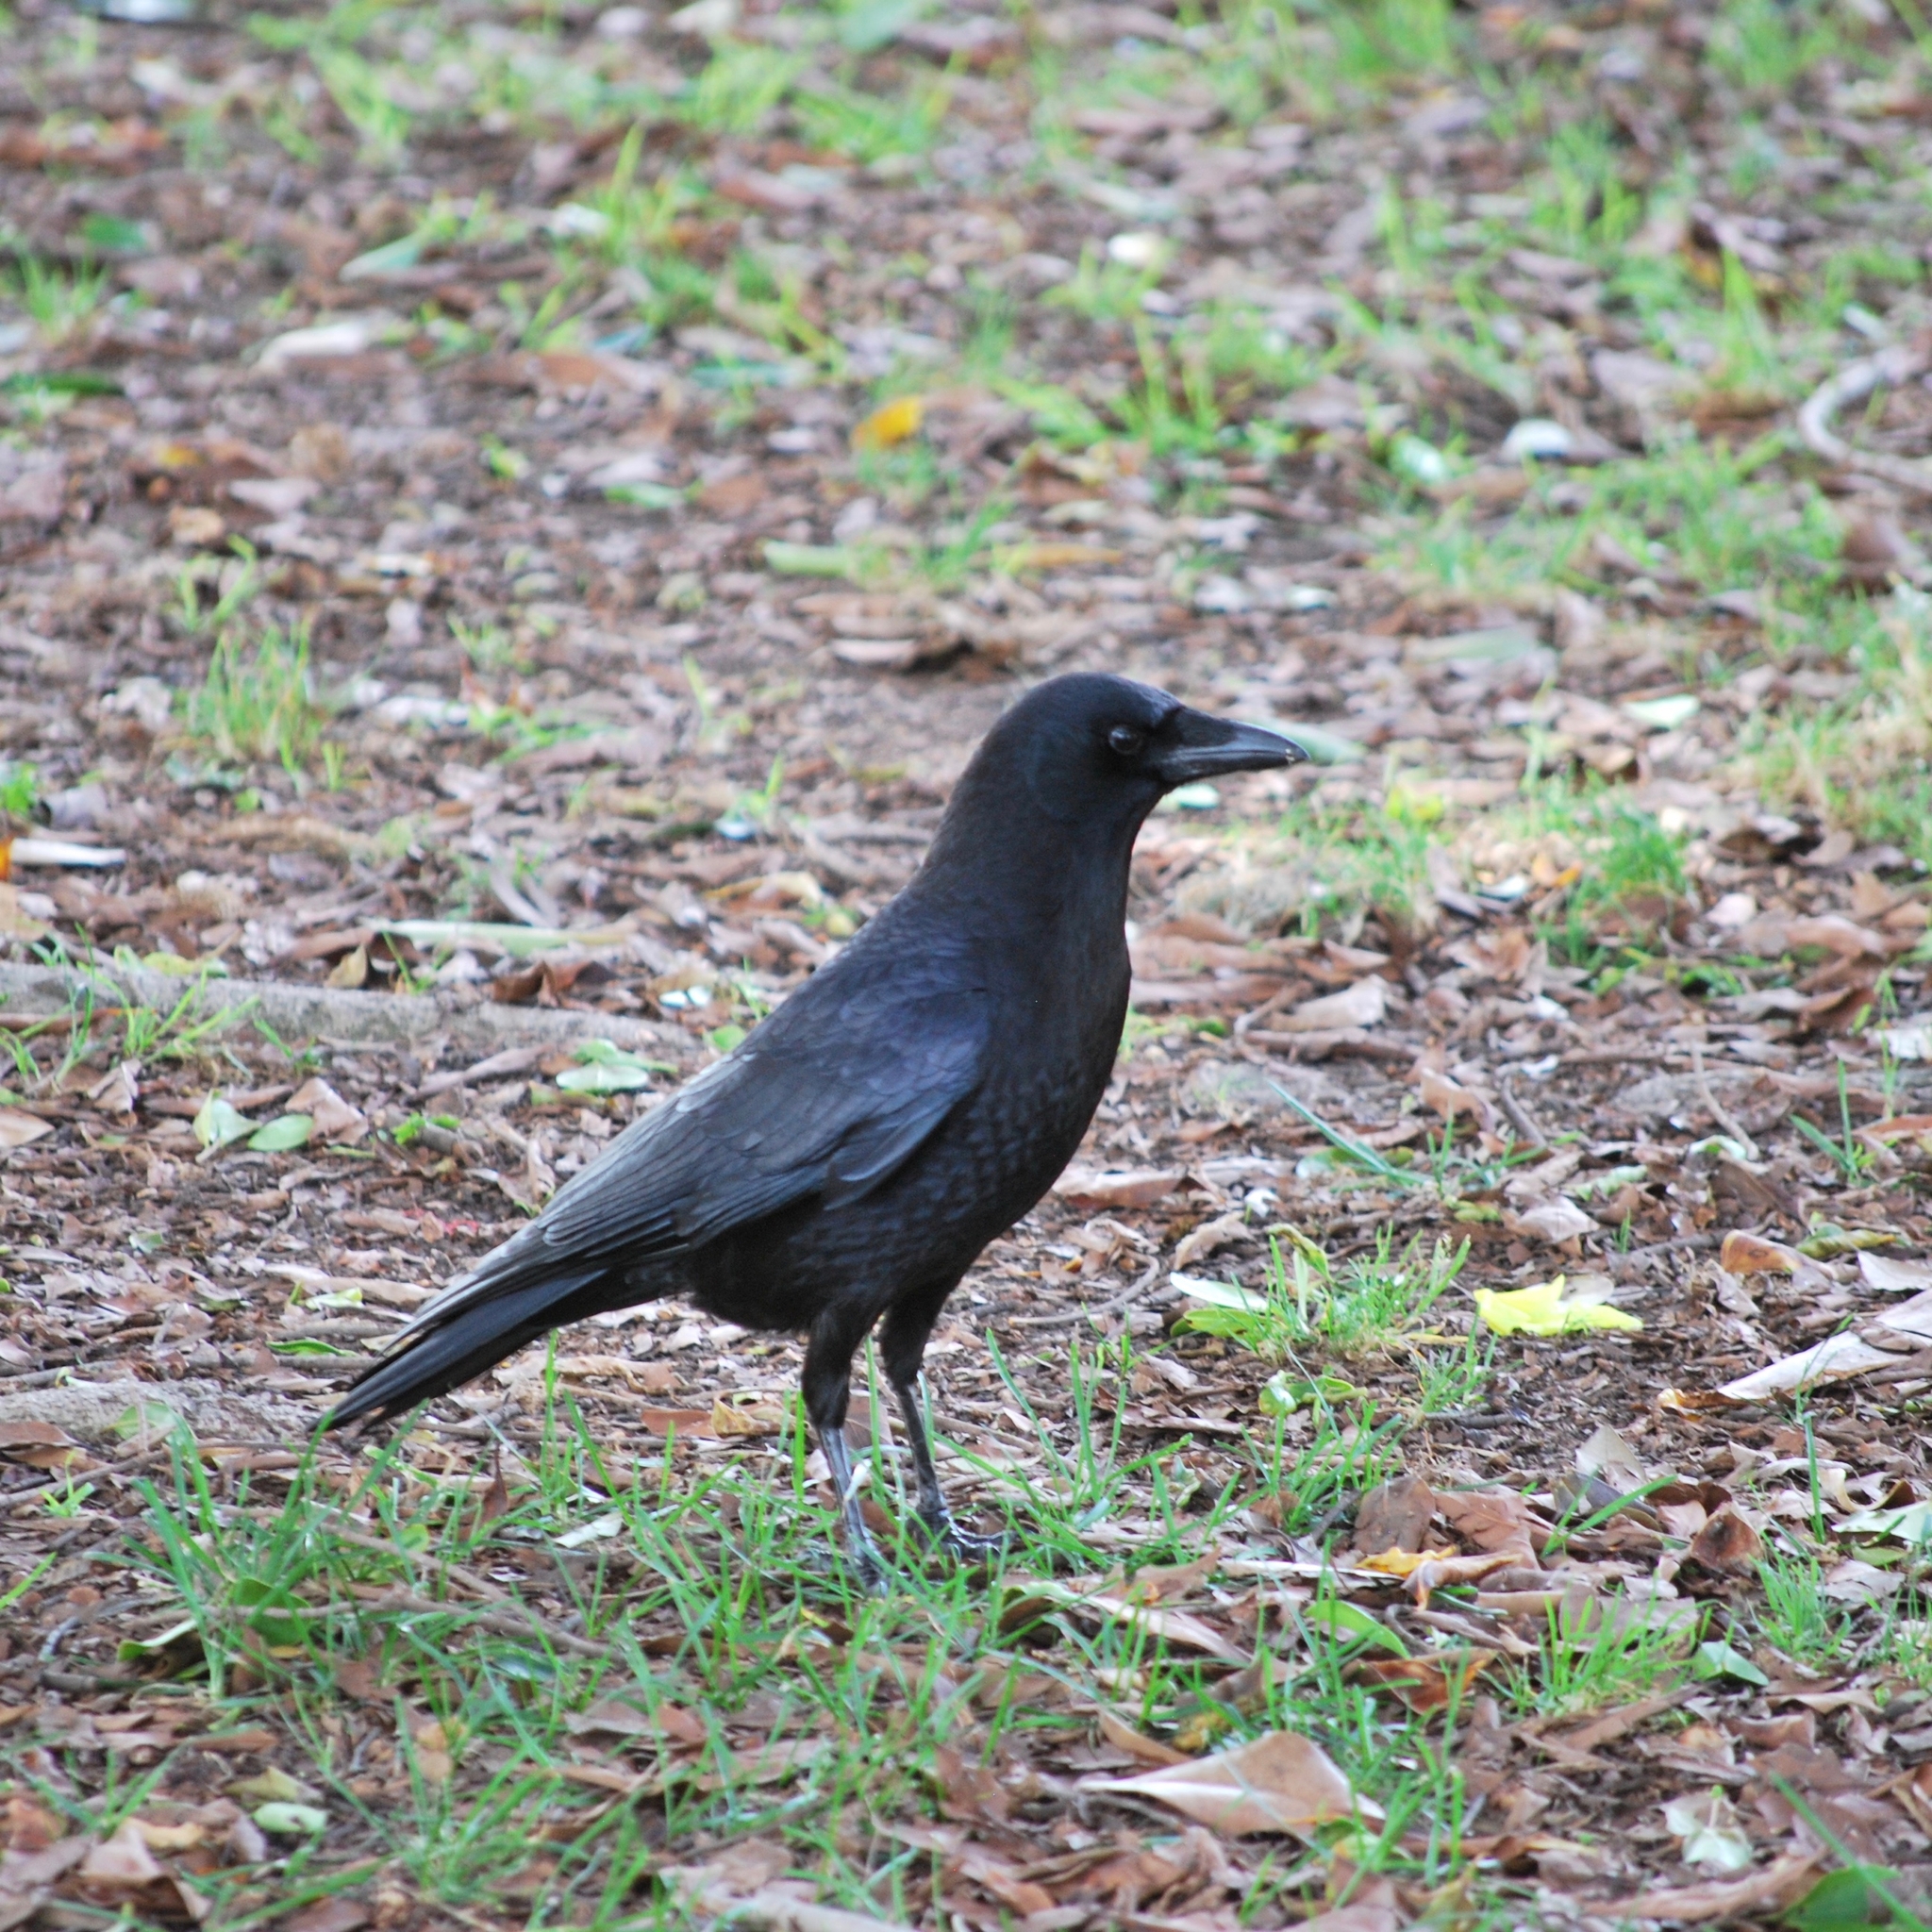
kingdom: Animalia
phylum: Chordata
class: Aves
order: Passeriformes
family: Corvidae
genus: Corvus
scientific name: Corvus brachyrhynchos
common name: American crow
